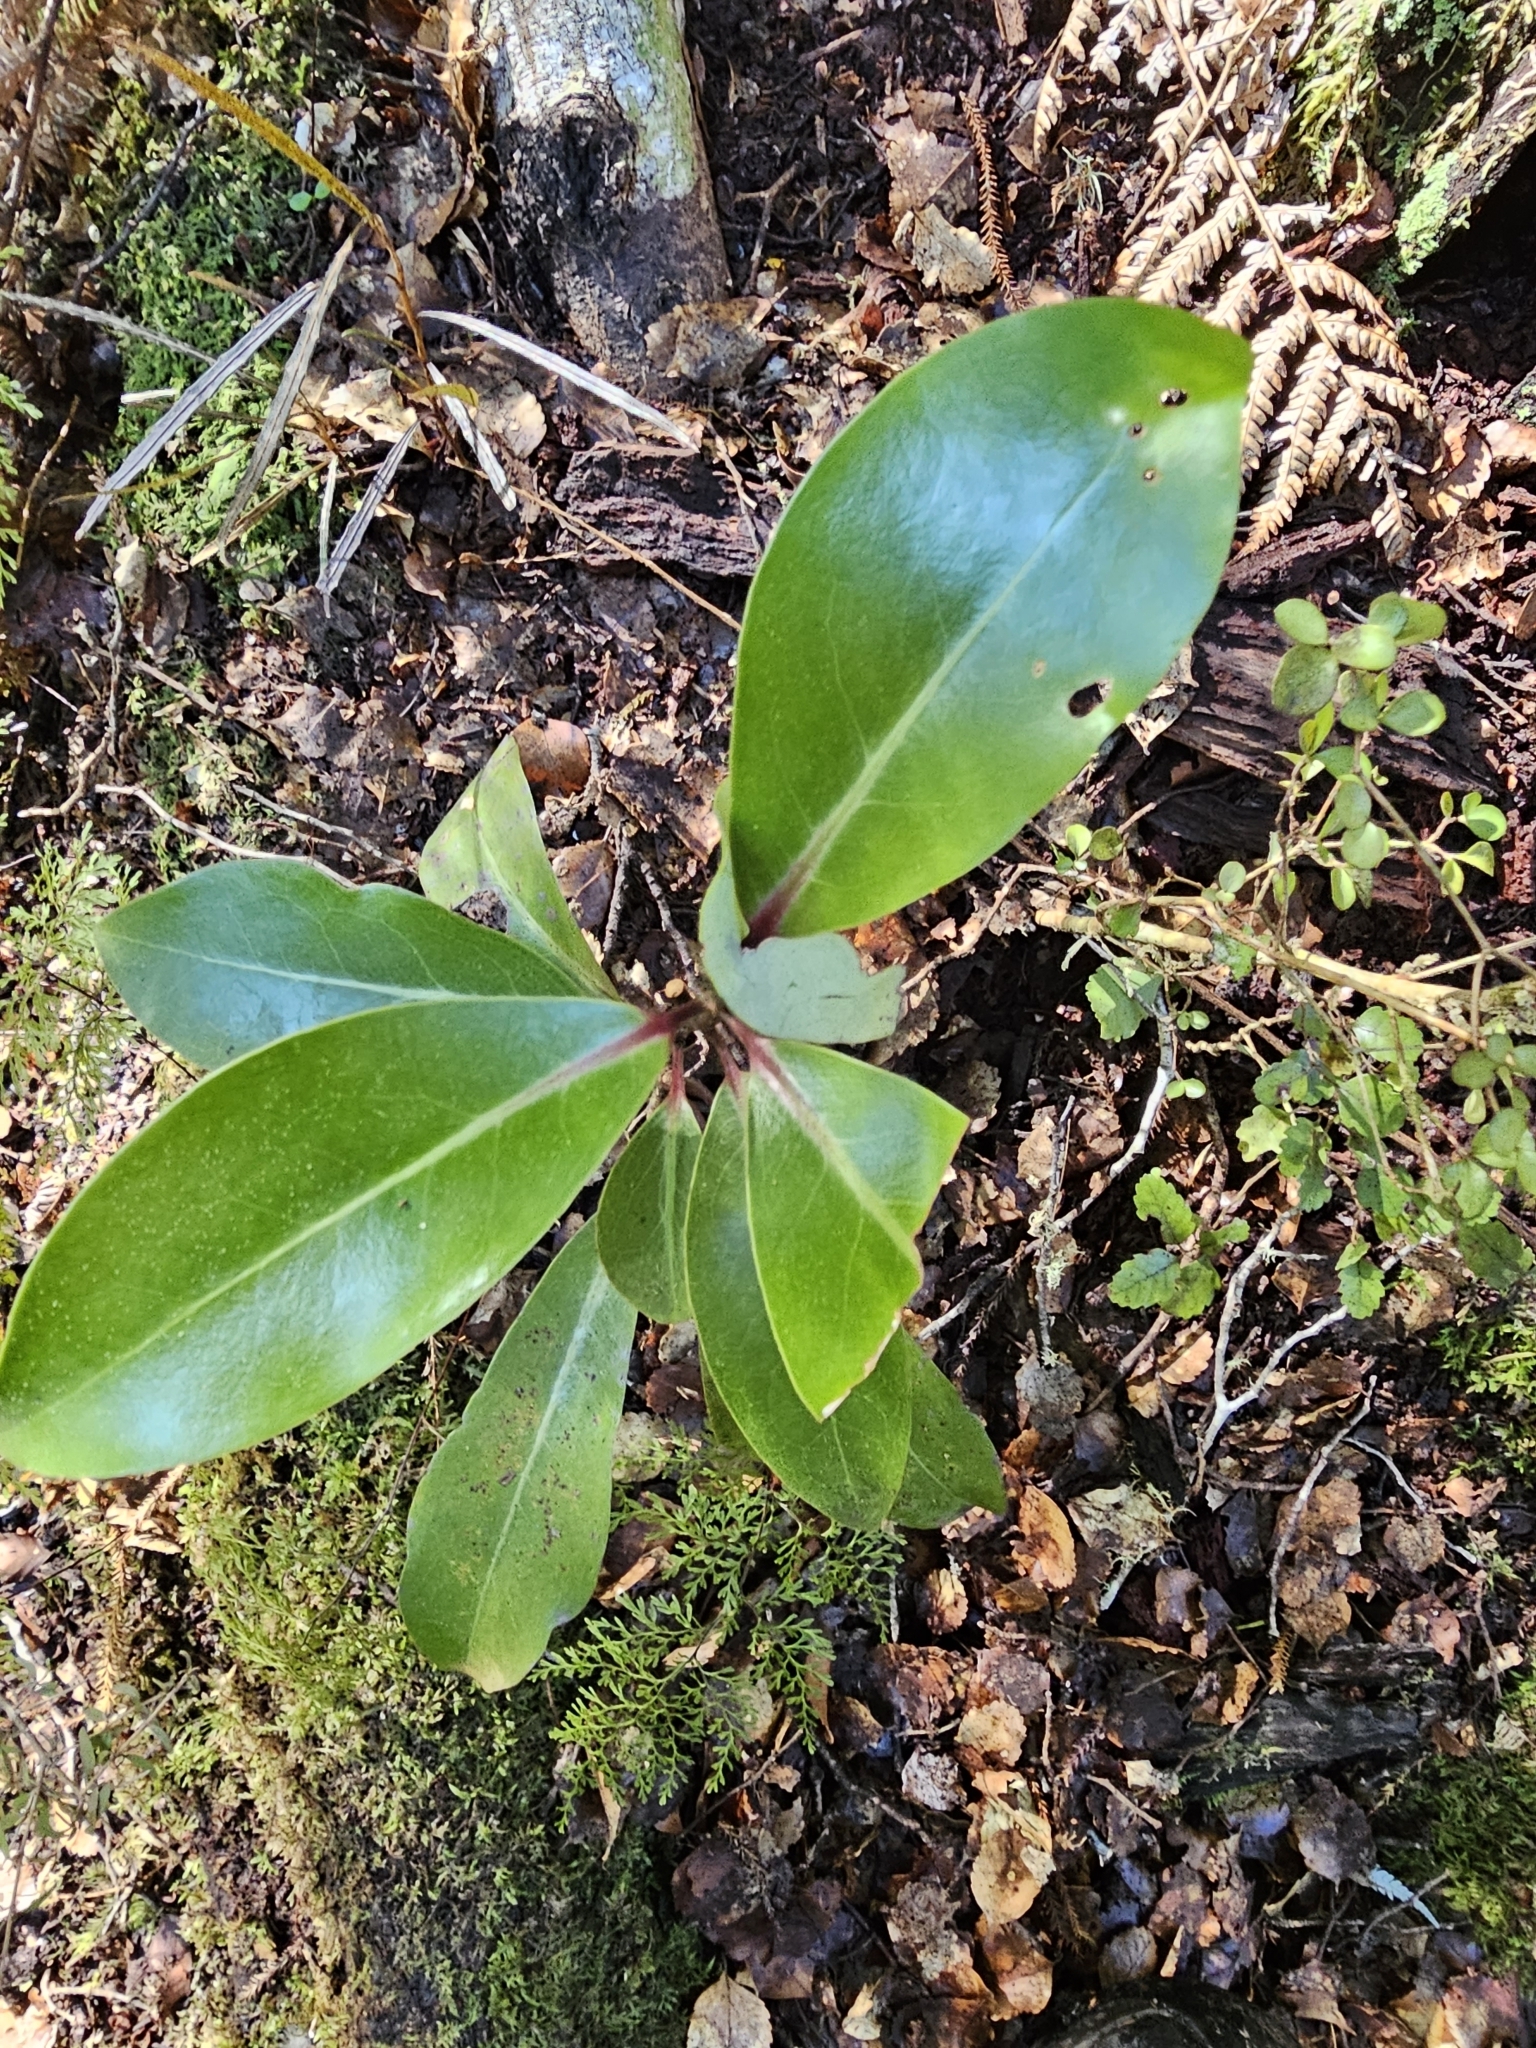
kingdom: Plantae
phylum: Tracheophyta
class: Magnoliopsida
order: Canellales
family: Winteraceae
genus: Pseudowintera
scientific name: Pseudowintera axillaris
